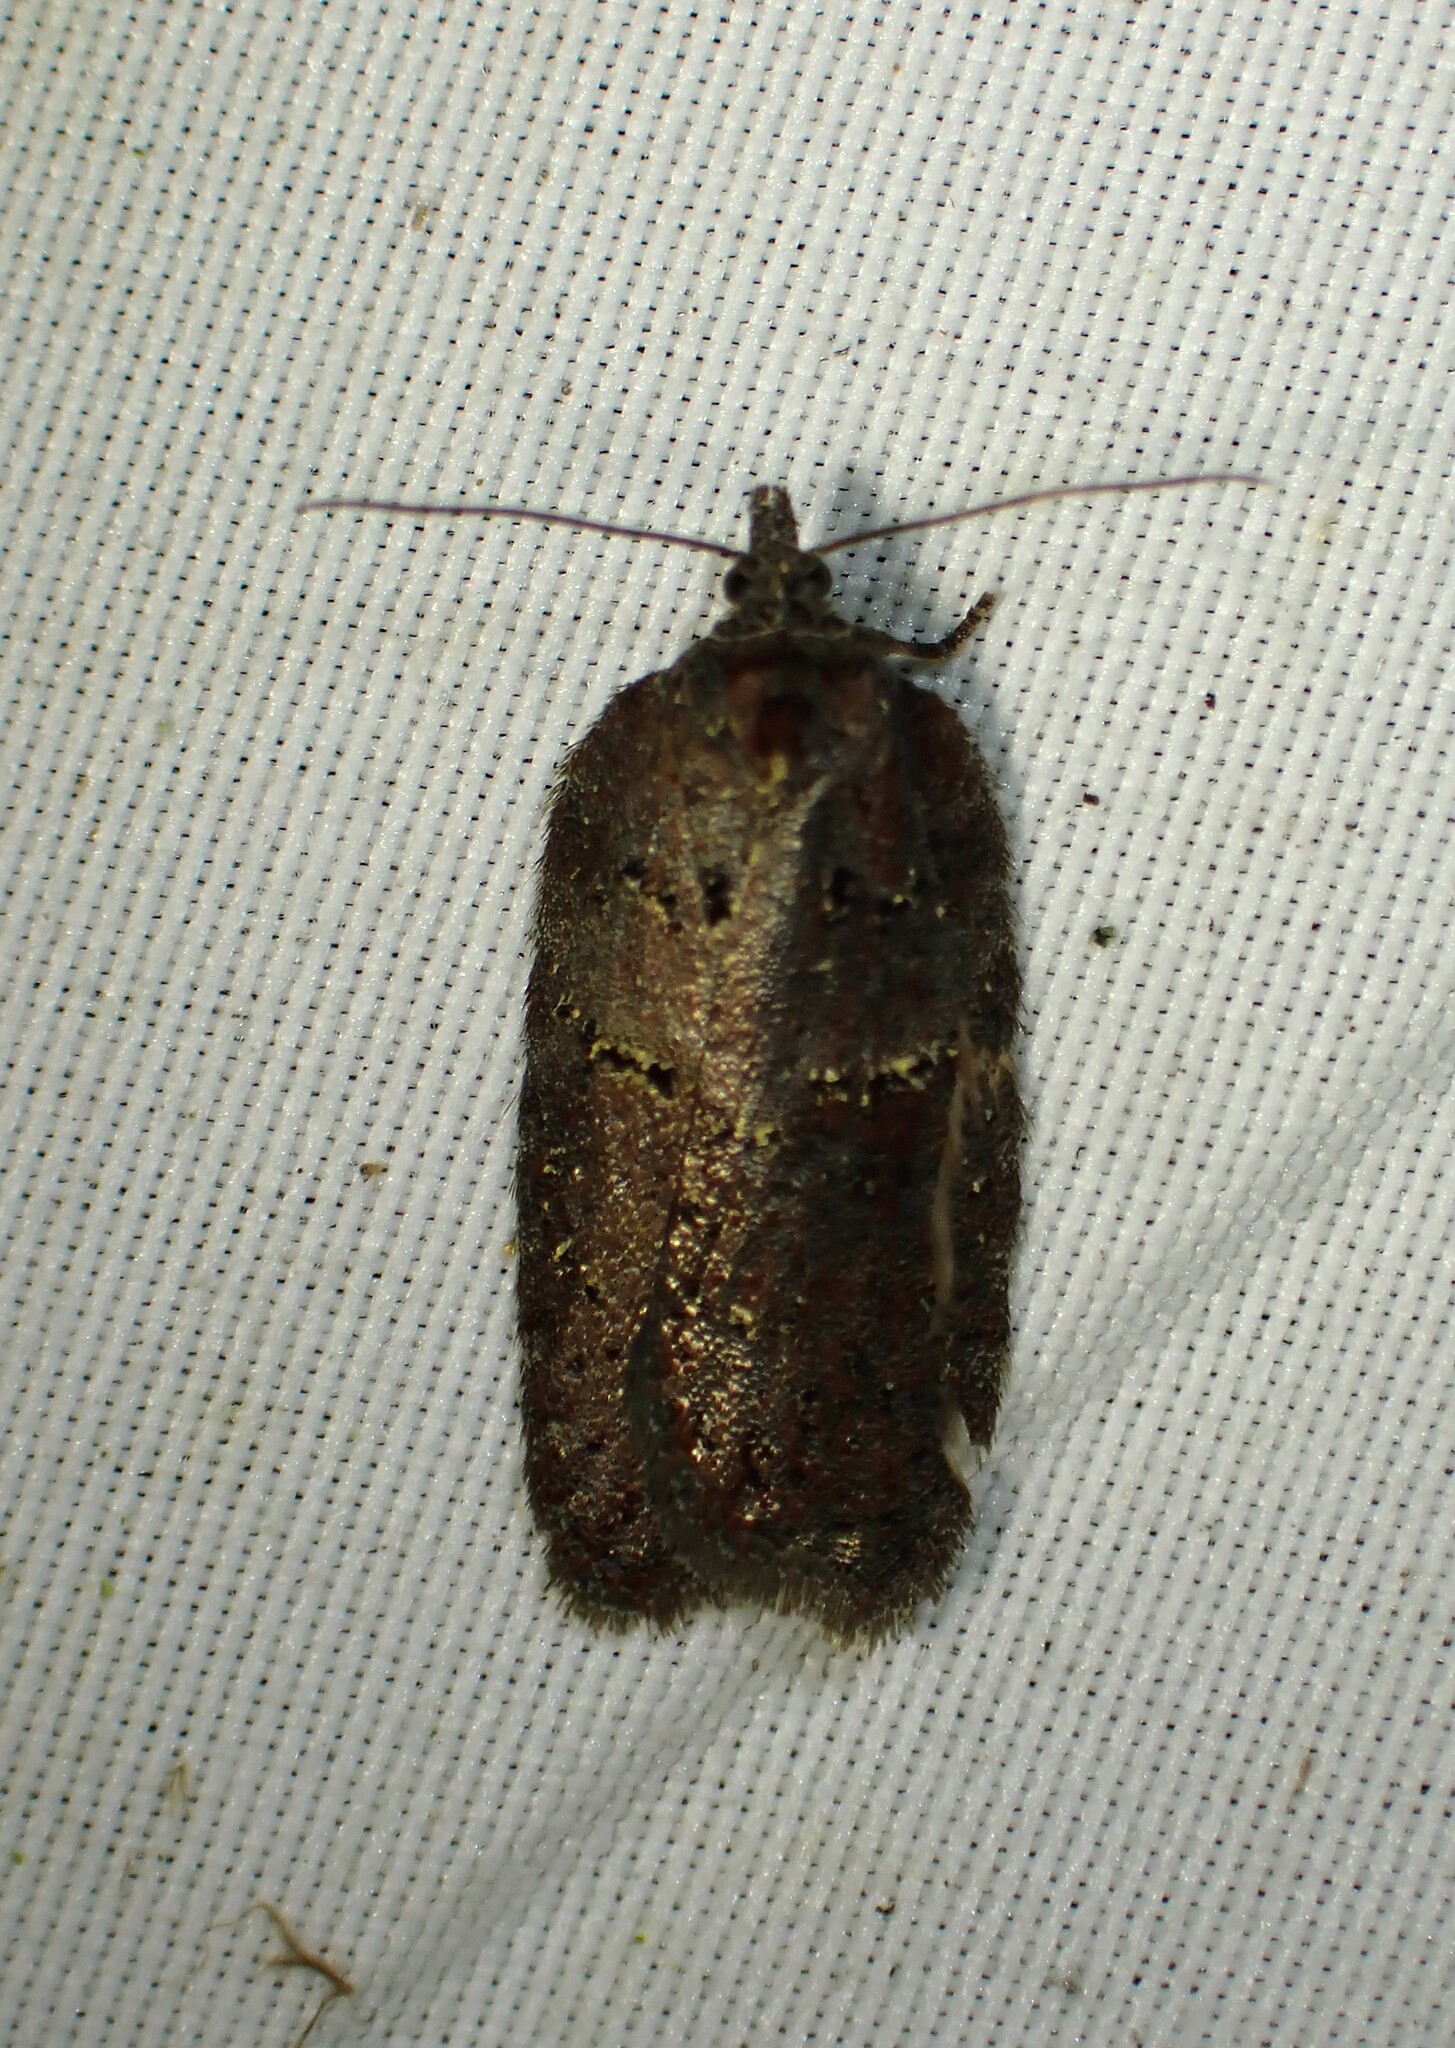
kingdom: Animalia
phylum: Arthropoda
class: Insecta
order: Lepidoptera
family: Tortricidae
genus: Acleris
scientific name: Acleris caliginosana
